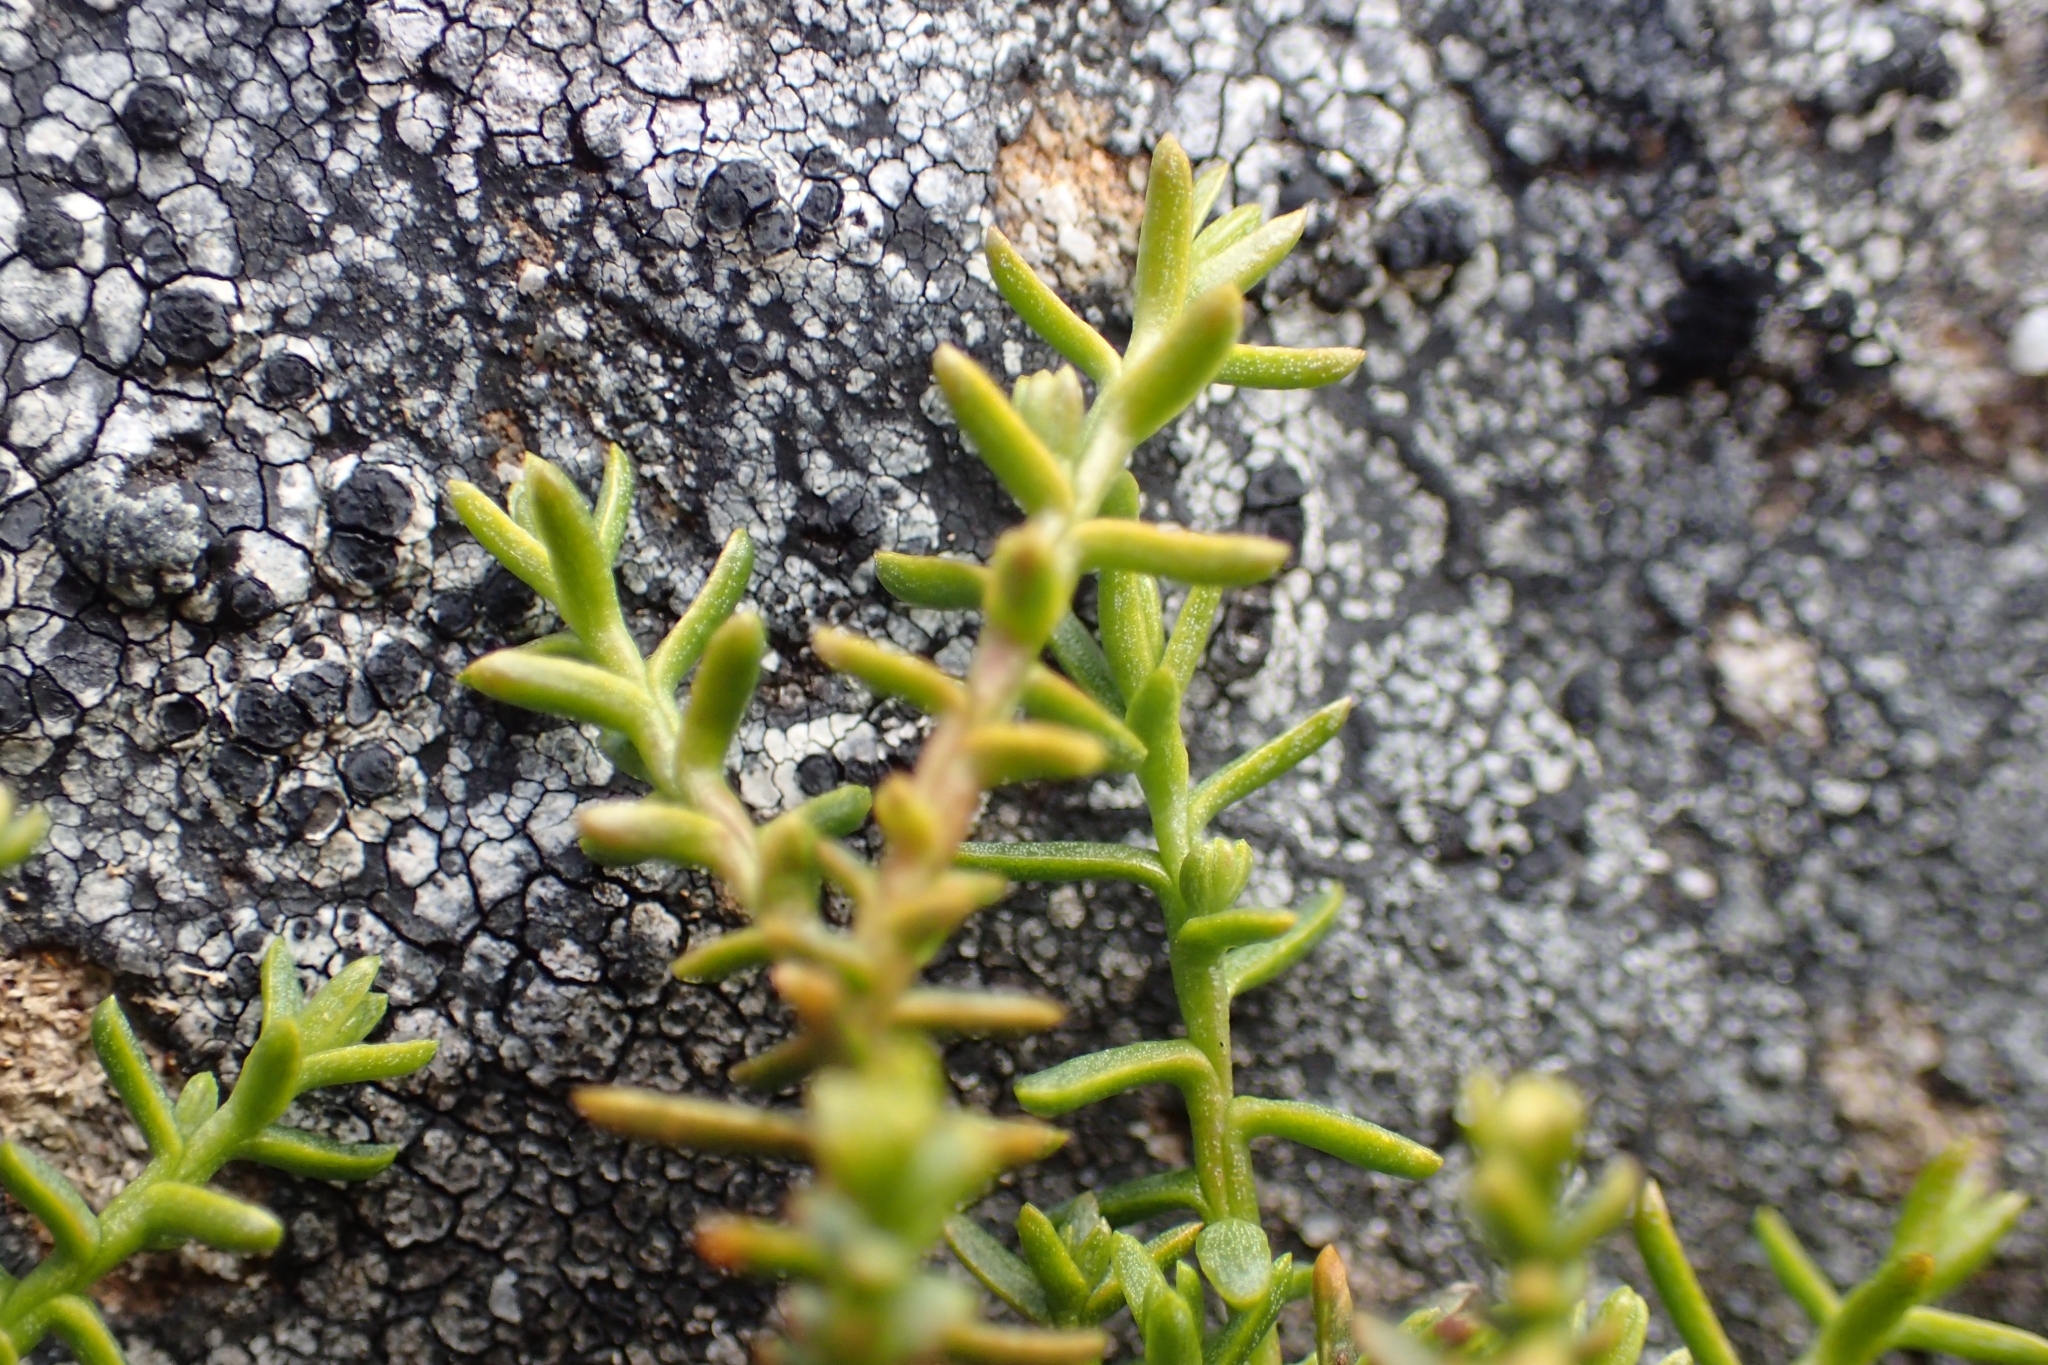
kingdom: Plantae
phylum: Tracheophyta
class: Pinopsida
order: Pinales
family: Podocarpaceae
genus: Lepidothamnus
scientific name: Lepidothamnus laxifolius
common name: Pygmy pine
